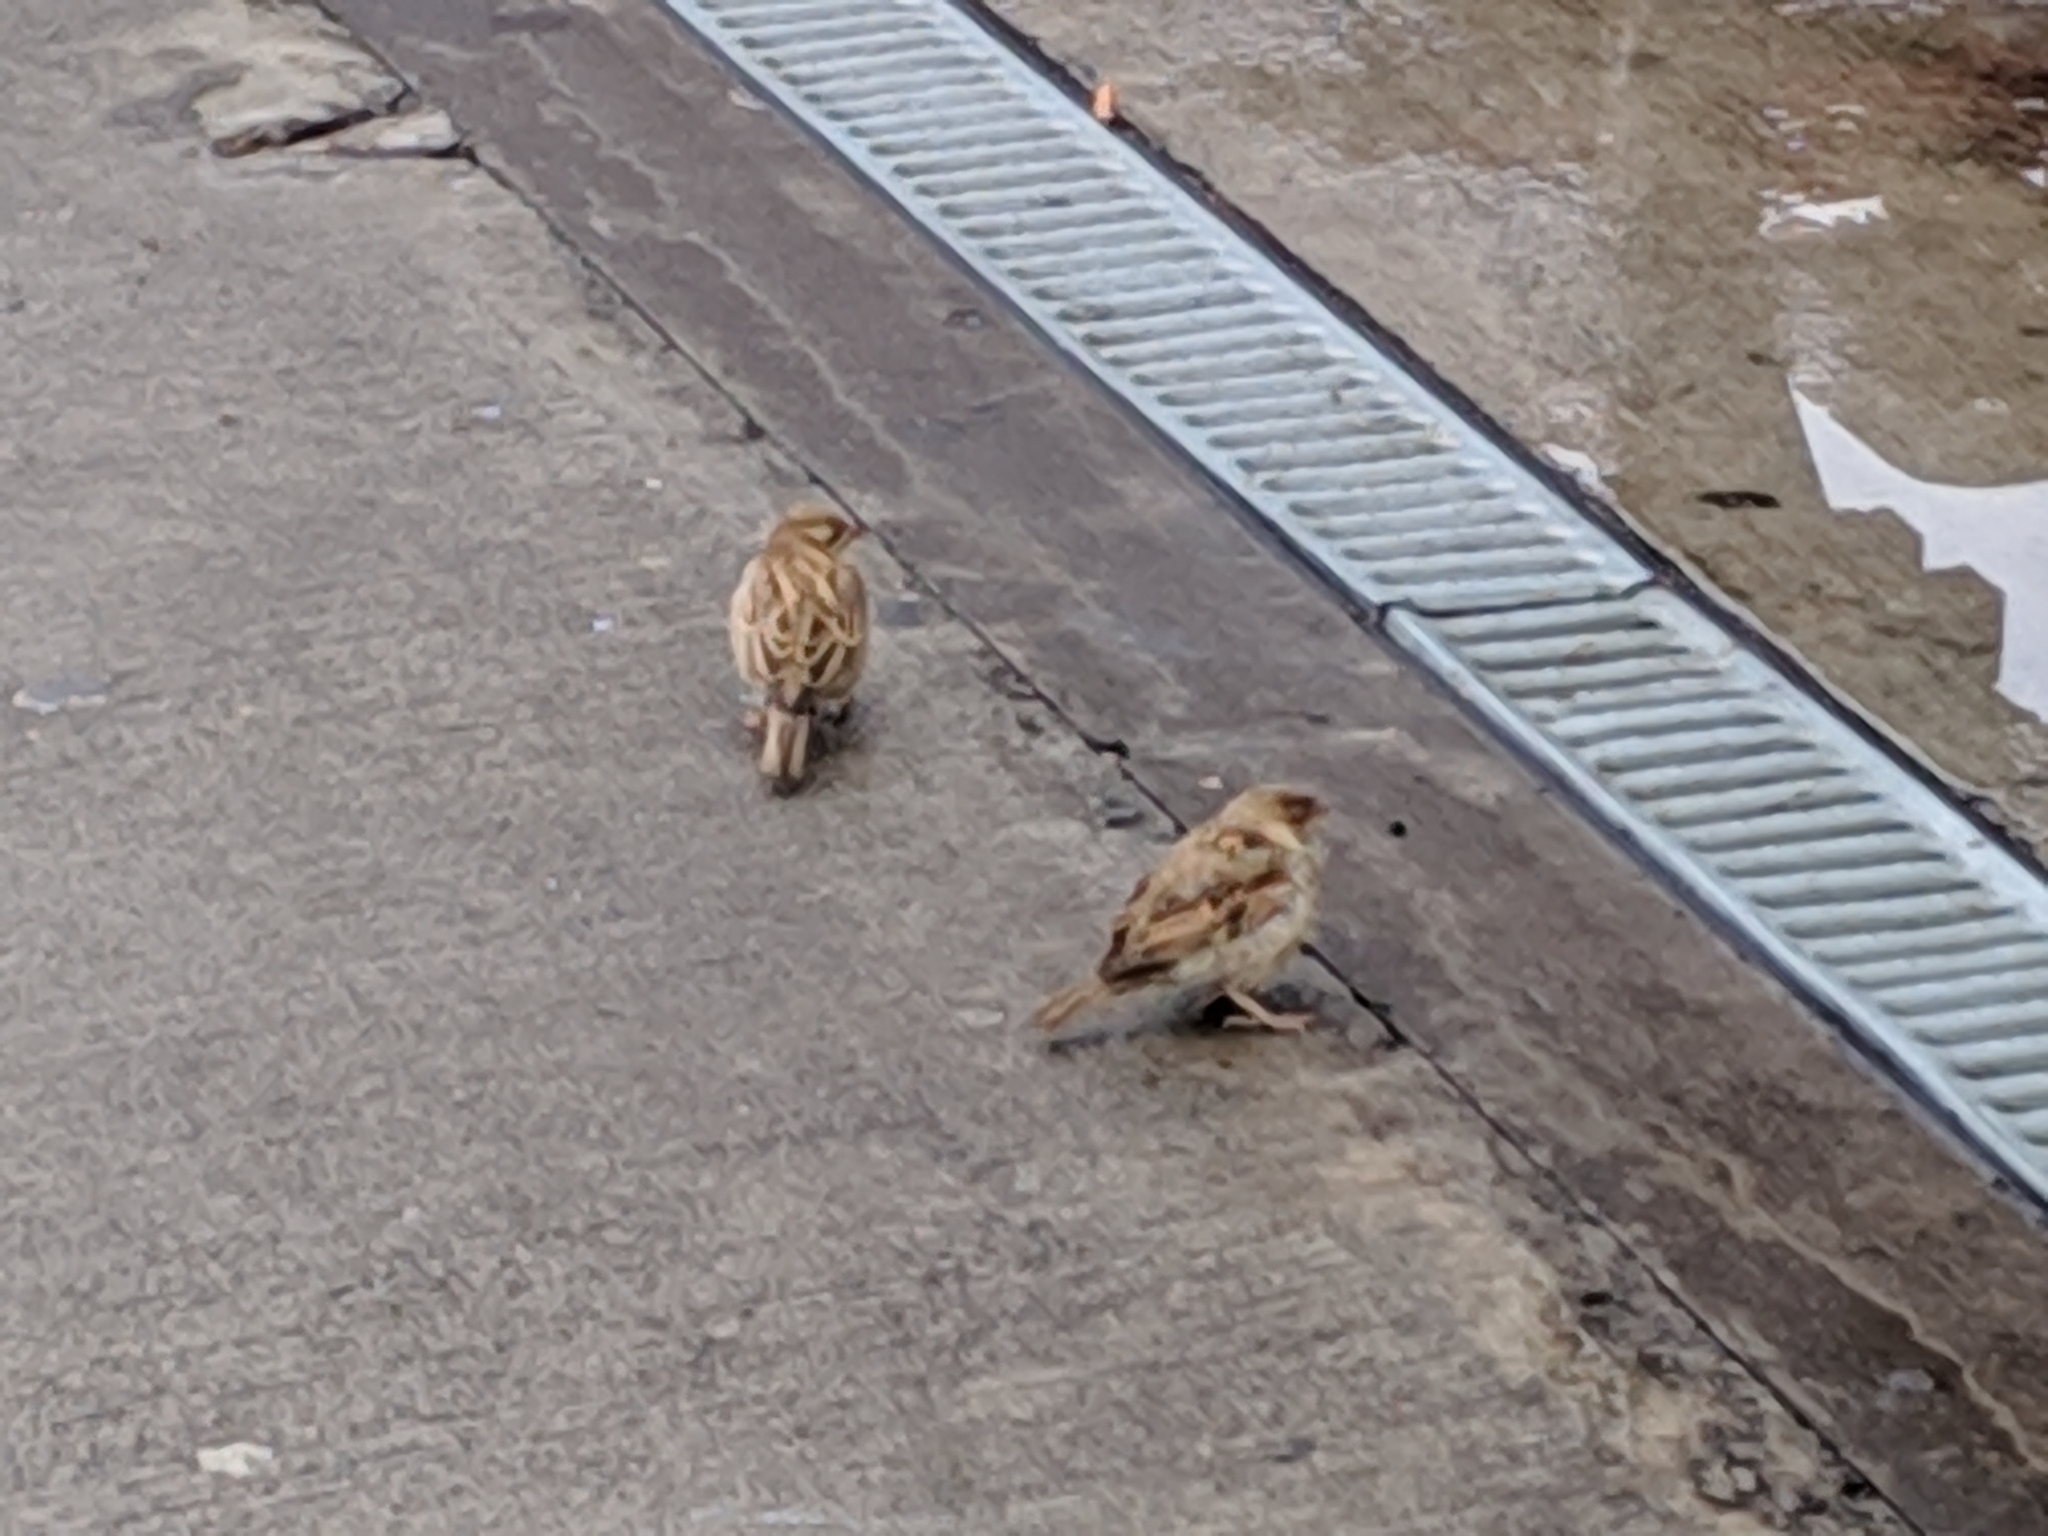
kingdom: Animalia
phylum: Chordata
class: Aves
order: Passeriformes
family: Passeridae
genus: Passer
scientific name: Passer domesticus
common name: House sparrow
